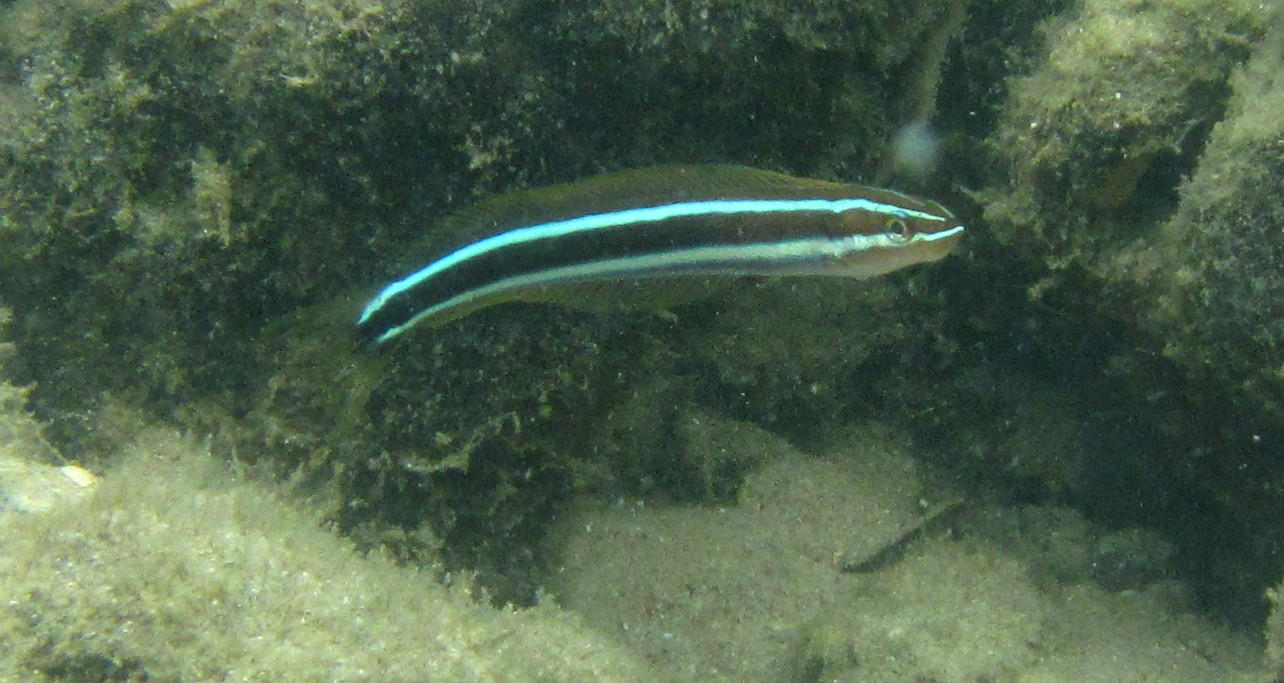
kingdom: Animalia
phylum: Chordata
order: Perciformes
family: Blenniidae
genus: Plagiotremus
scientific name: Plagiotremus rhinorhynchos
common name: Bluestriped fangblenny
